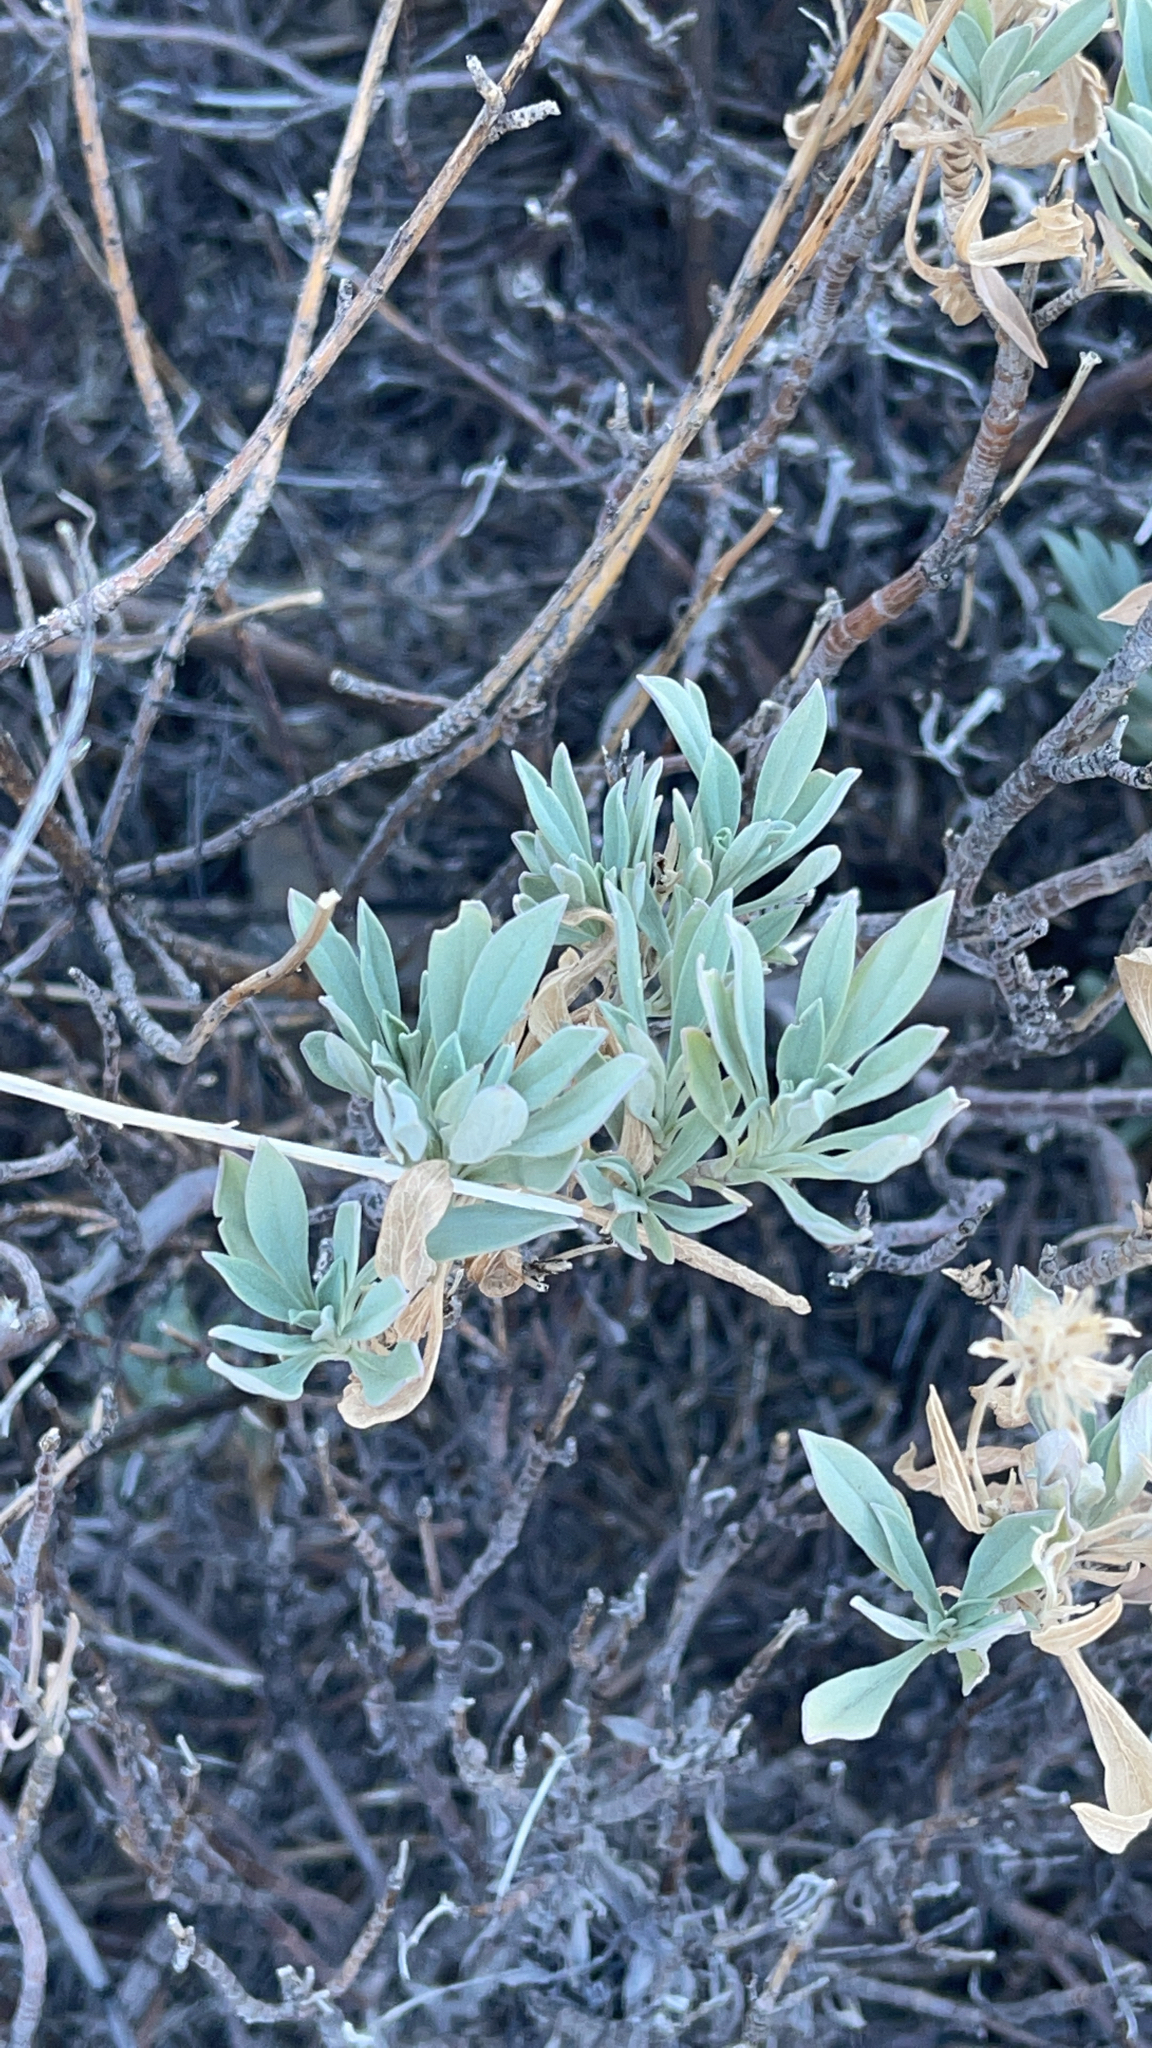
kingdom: Plantae
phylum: Tracheophyta
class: Magnoliopsida
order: Dipsacales
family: Caprifoliaceae
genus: Pterocephalus
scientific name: Pterocephalus lasiospermus
